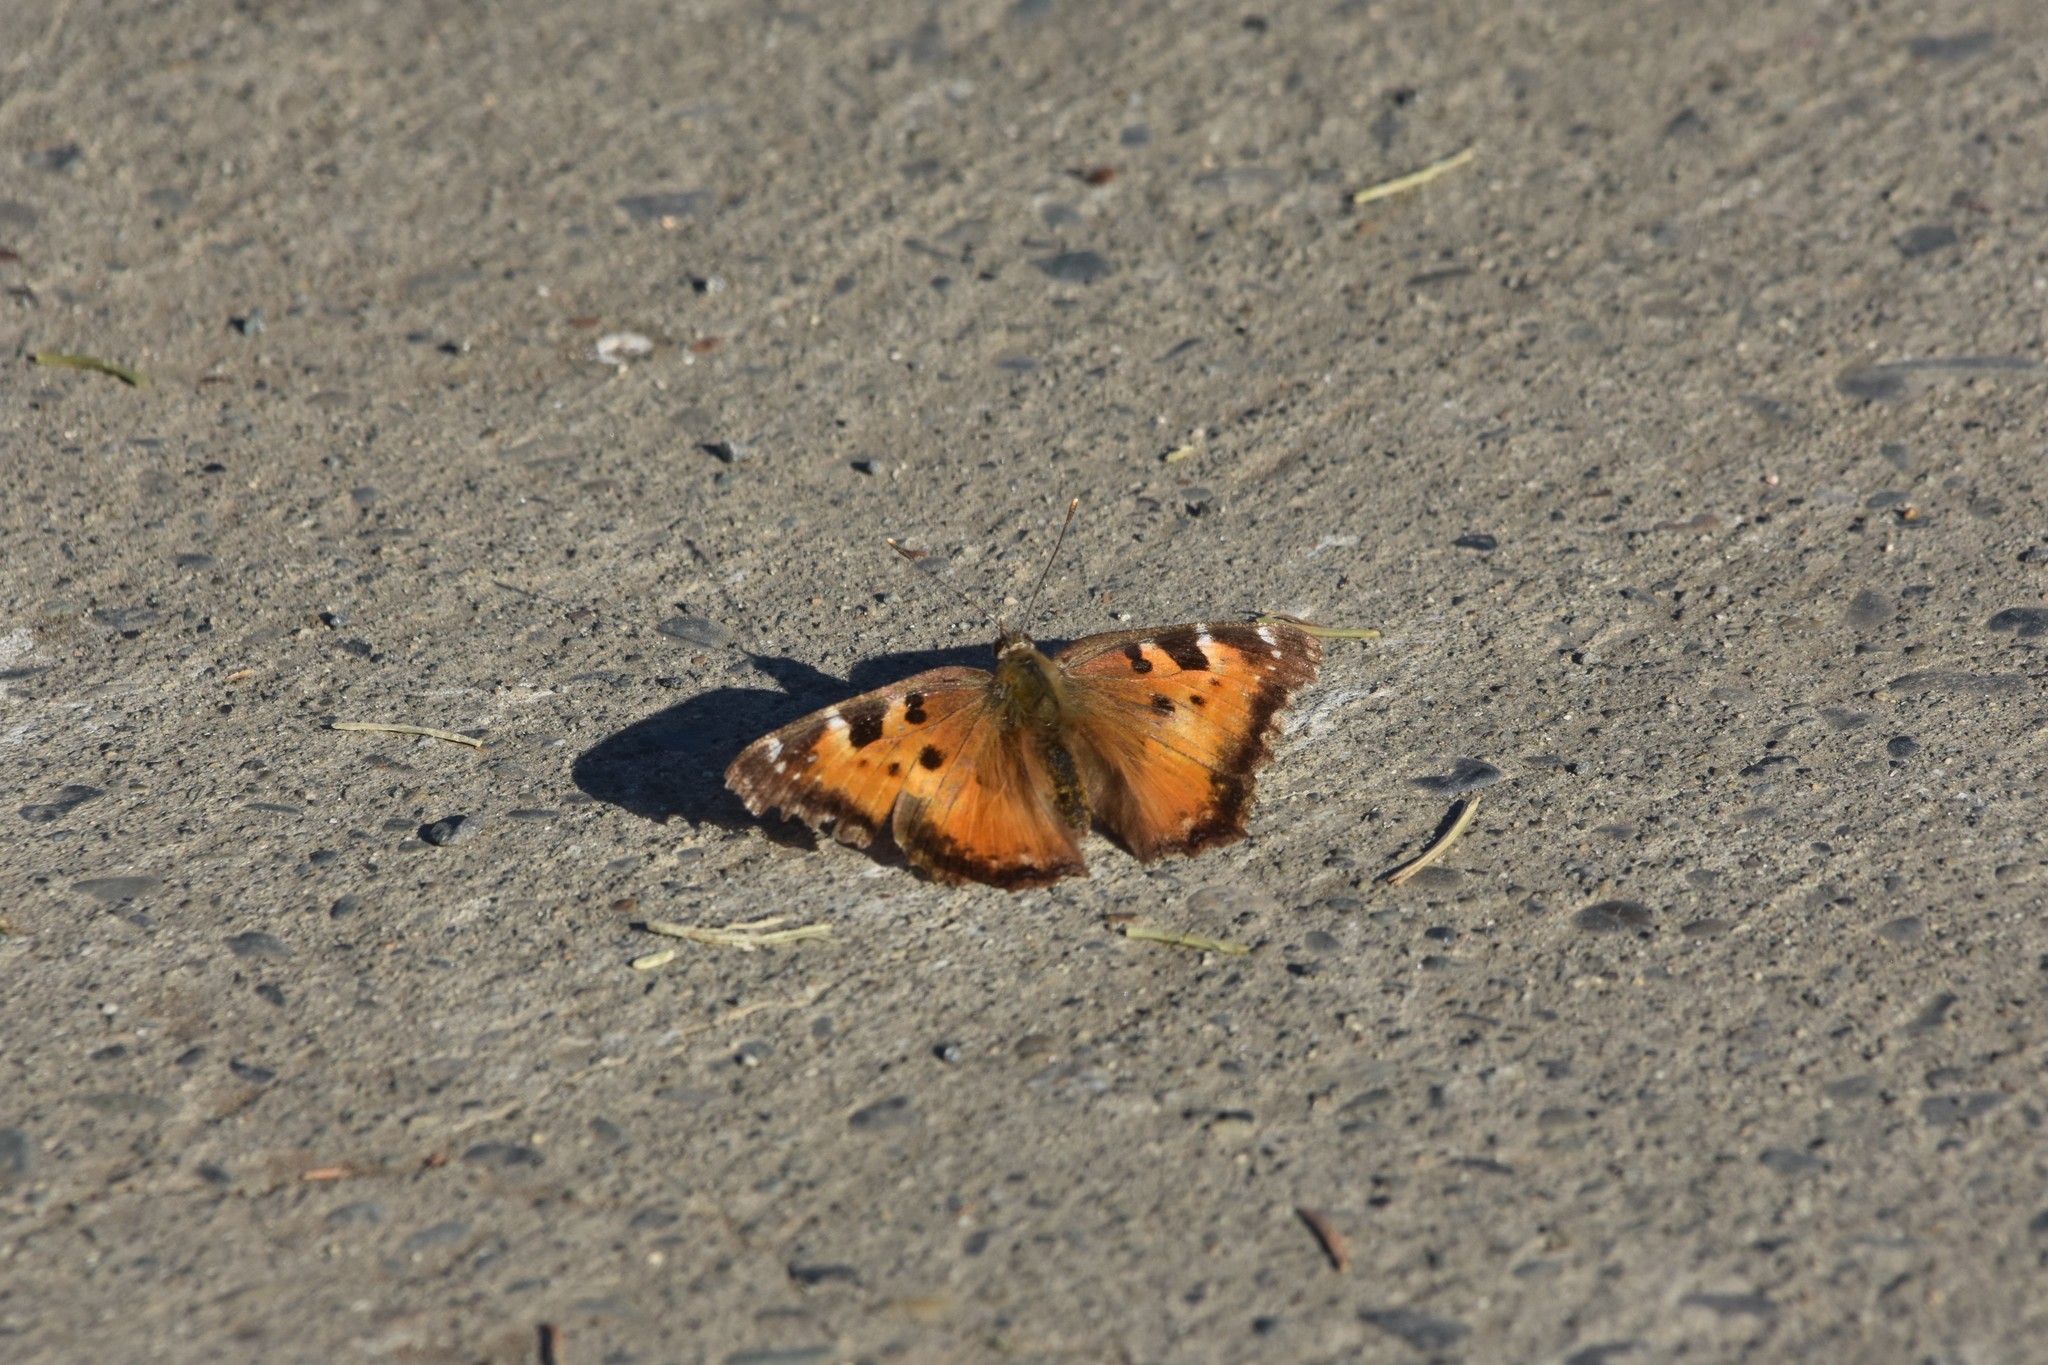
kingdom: Animalia
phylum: Arthropoda
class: Insecta
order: Lepidoptera
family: Nymphalidae
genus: Nymphalis
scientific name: Nymphalis californica
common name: California tortoiseshell
